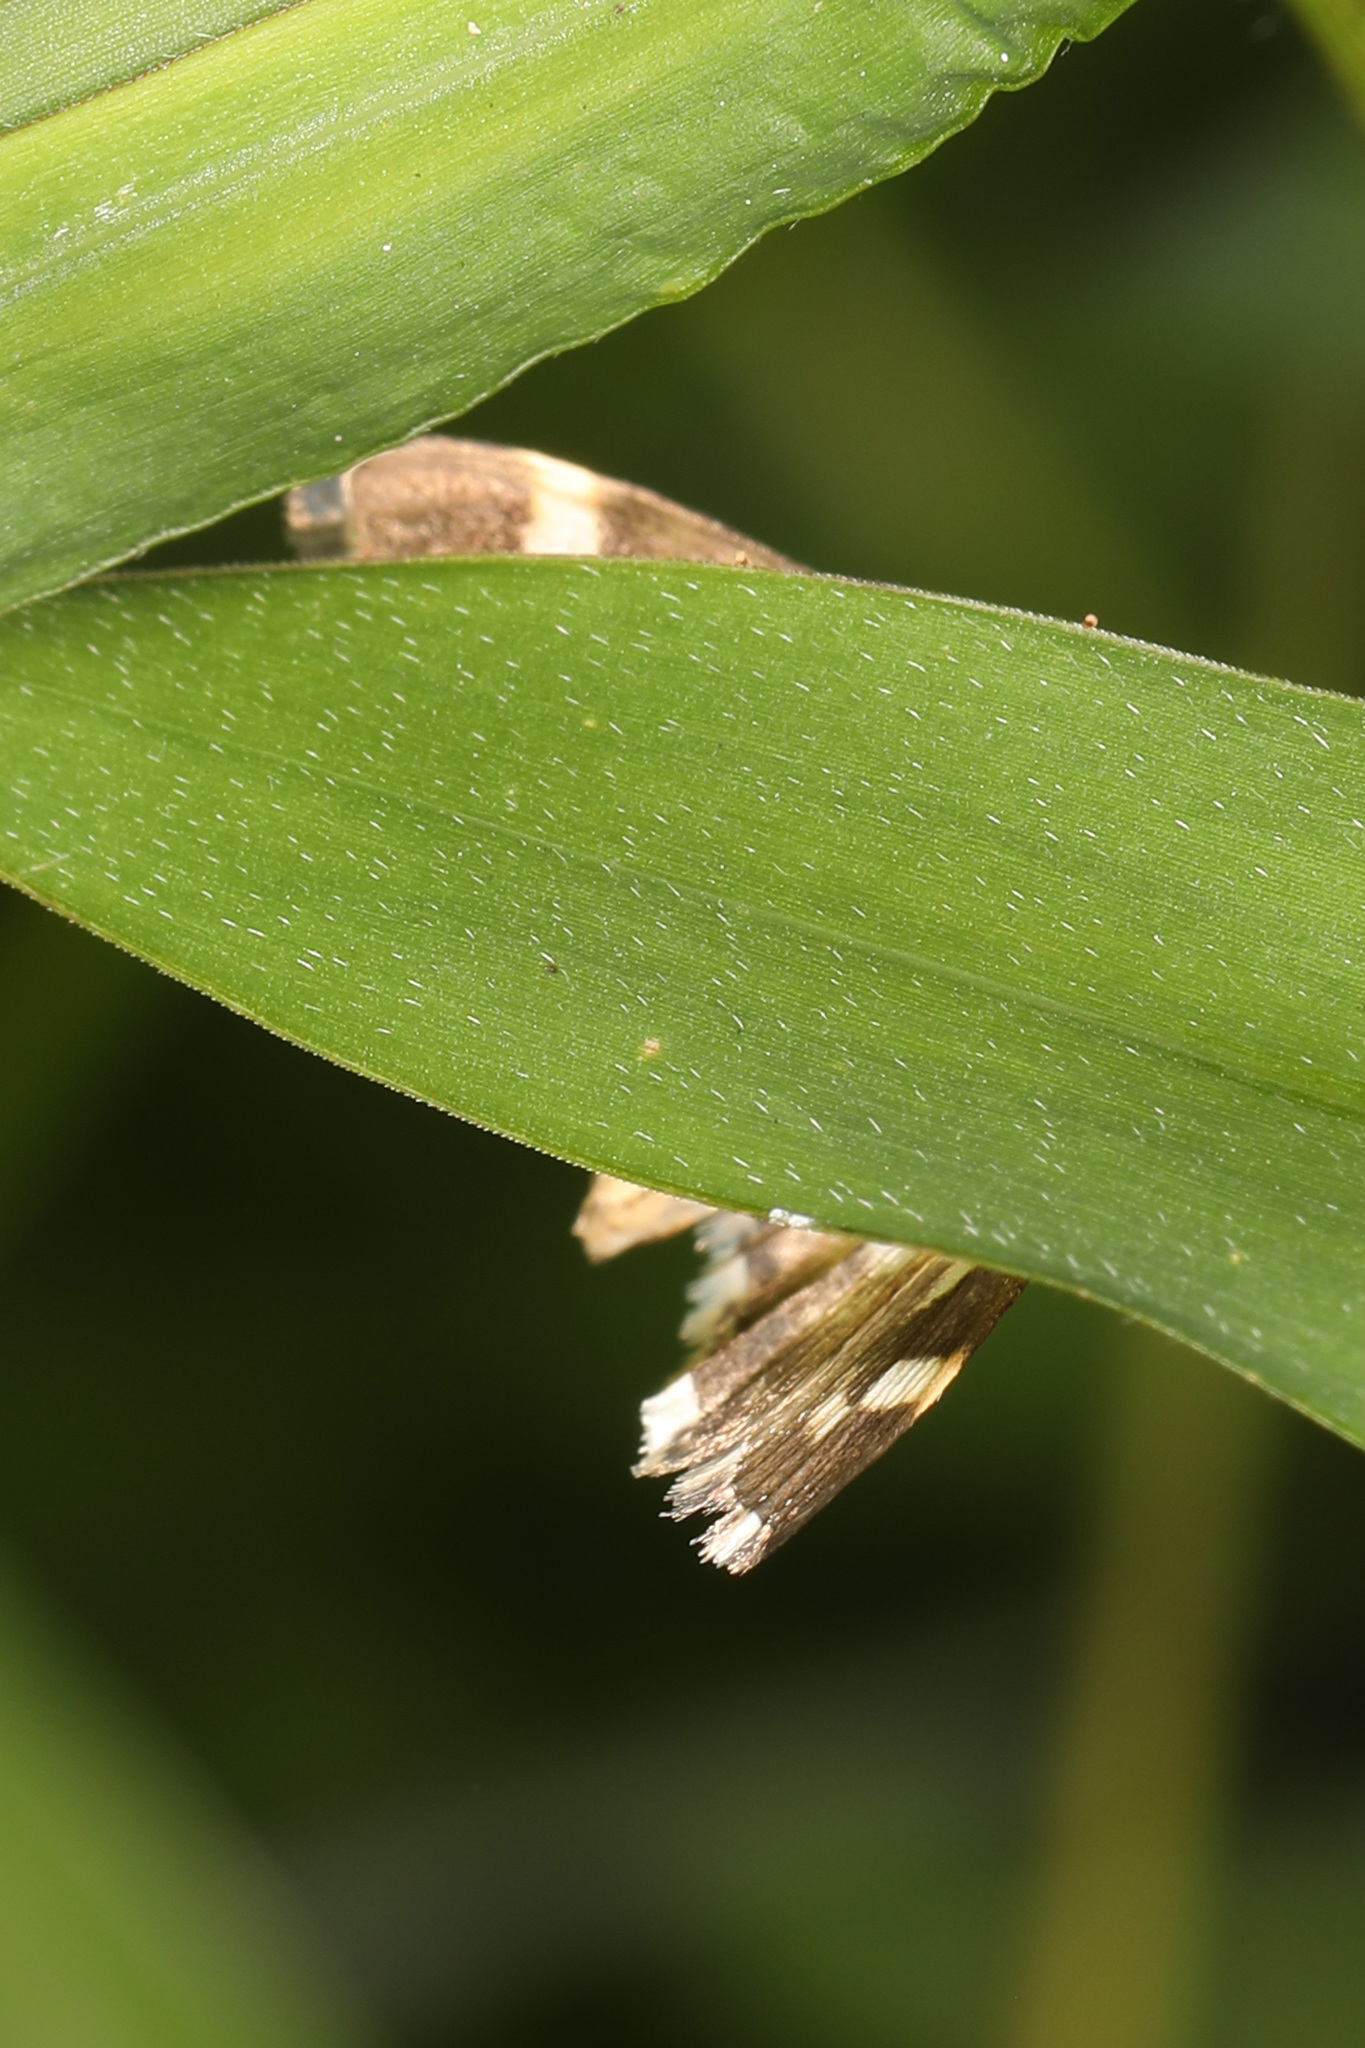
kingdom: Animalia
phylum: Arthropoda
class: Insecta
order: Lepidoptera
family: Crambidae
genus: Spoladea
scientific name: Spoladea recurvalis
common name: Beet webworm moth
